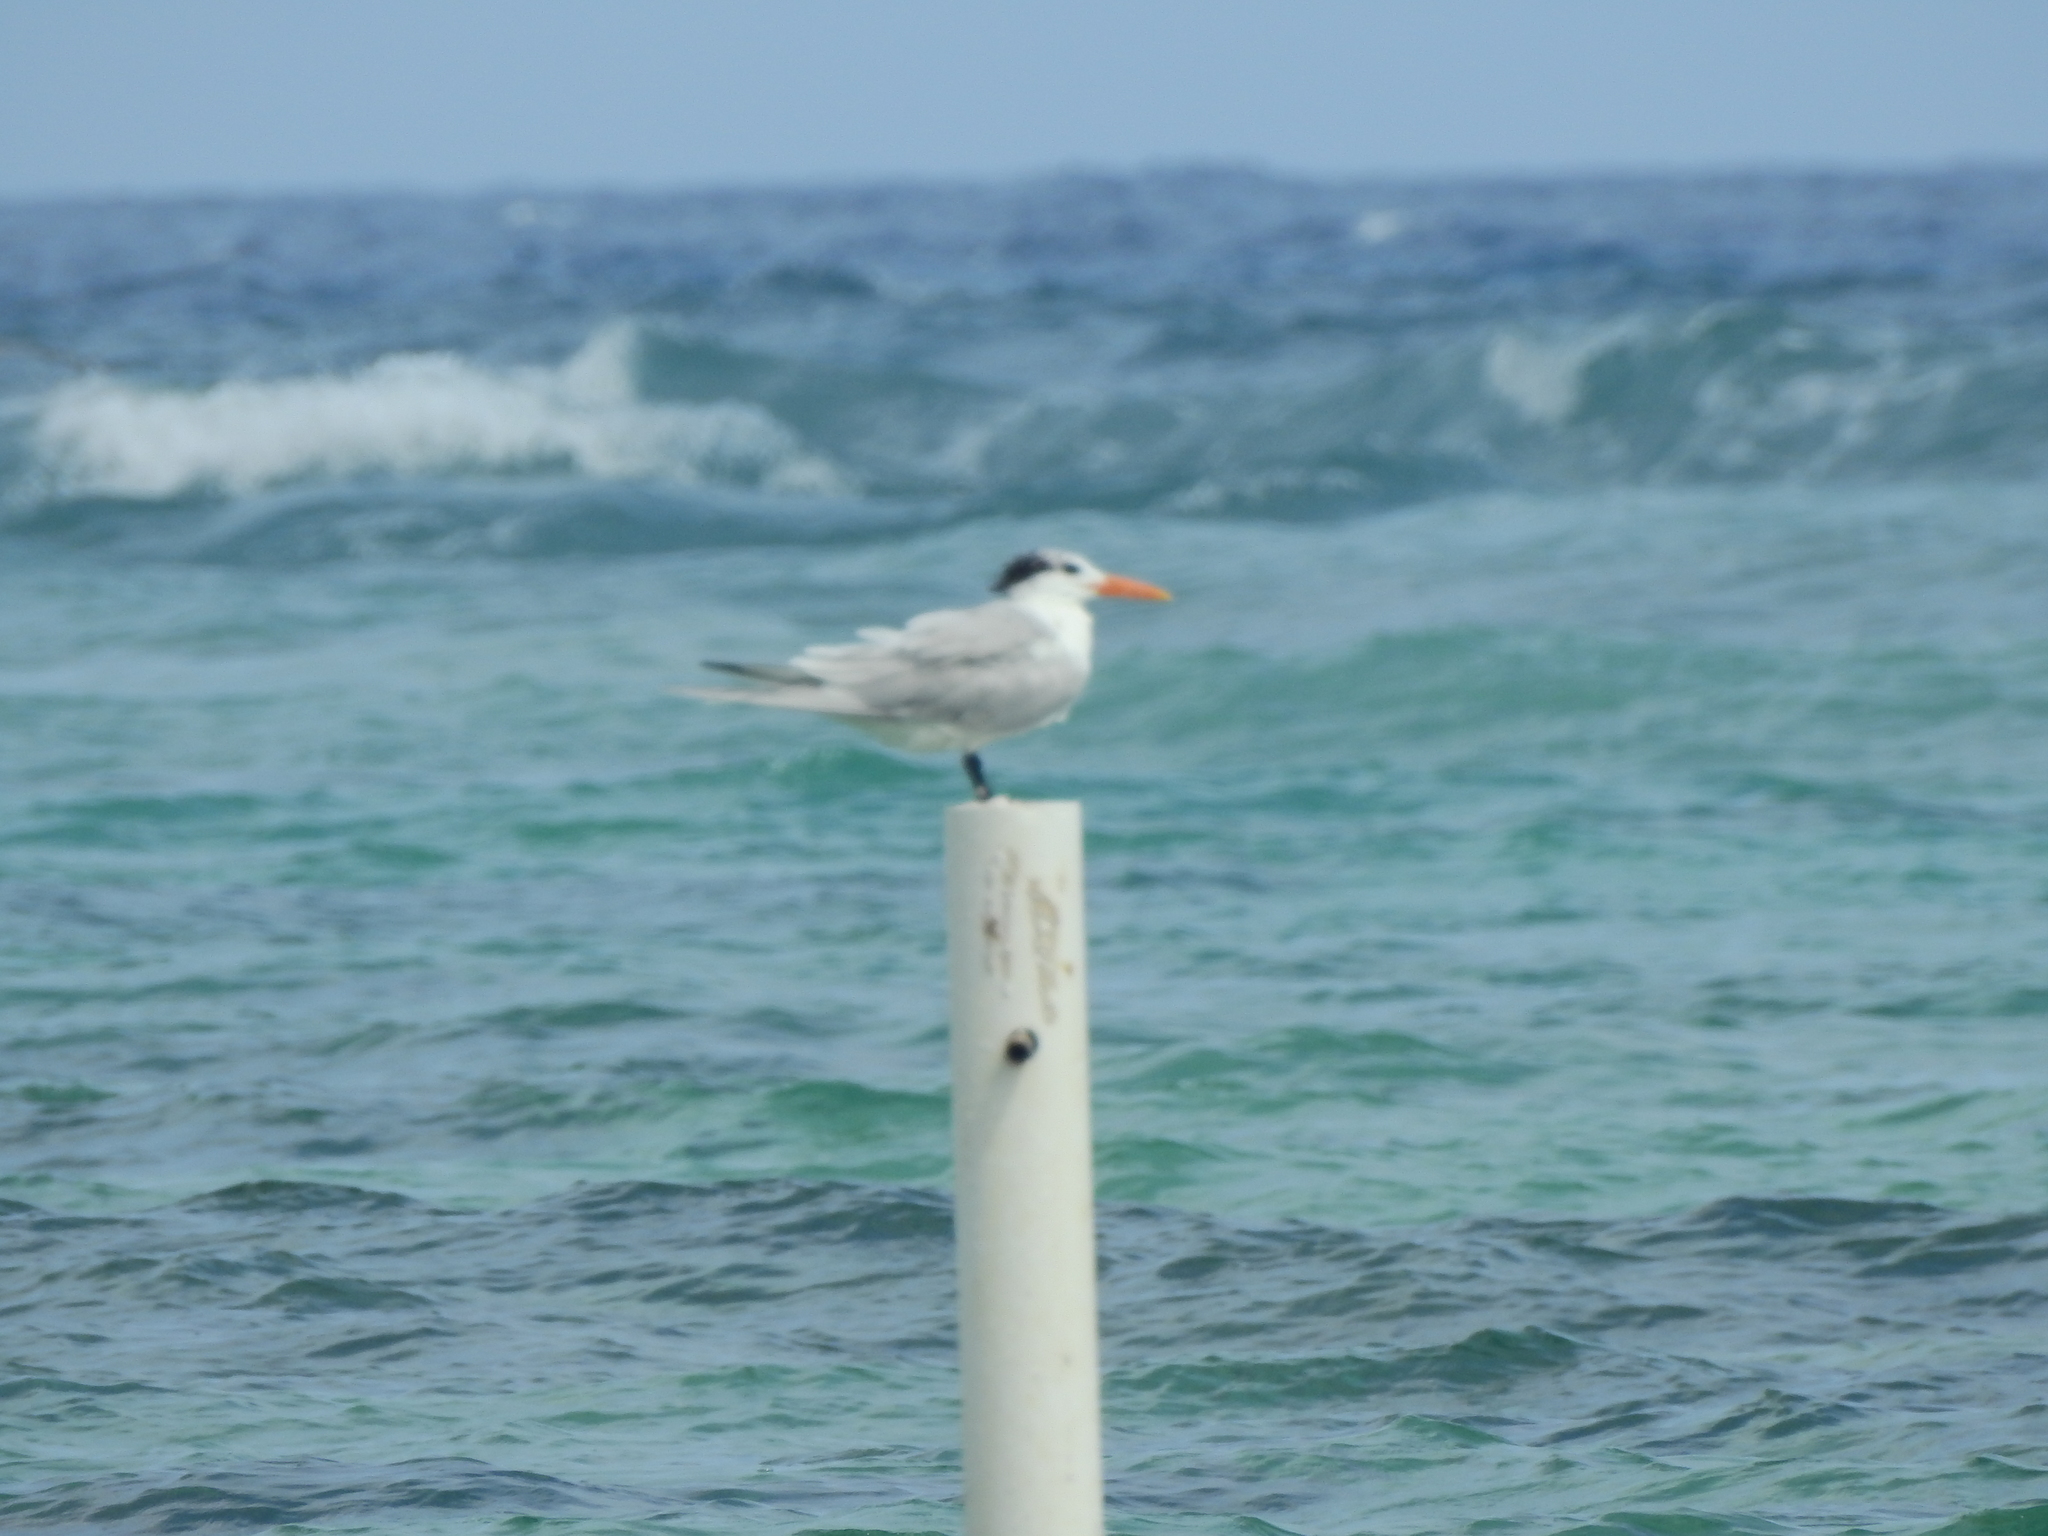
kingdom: Animalia
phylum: Chordata
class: Aves
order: Charadriiformes
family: Laridae
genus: Thalasseus
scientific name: Thalasseus maximus
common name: Royal tern
